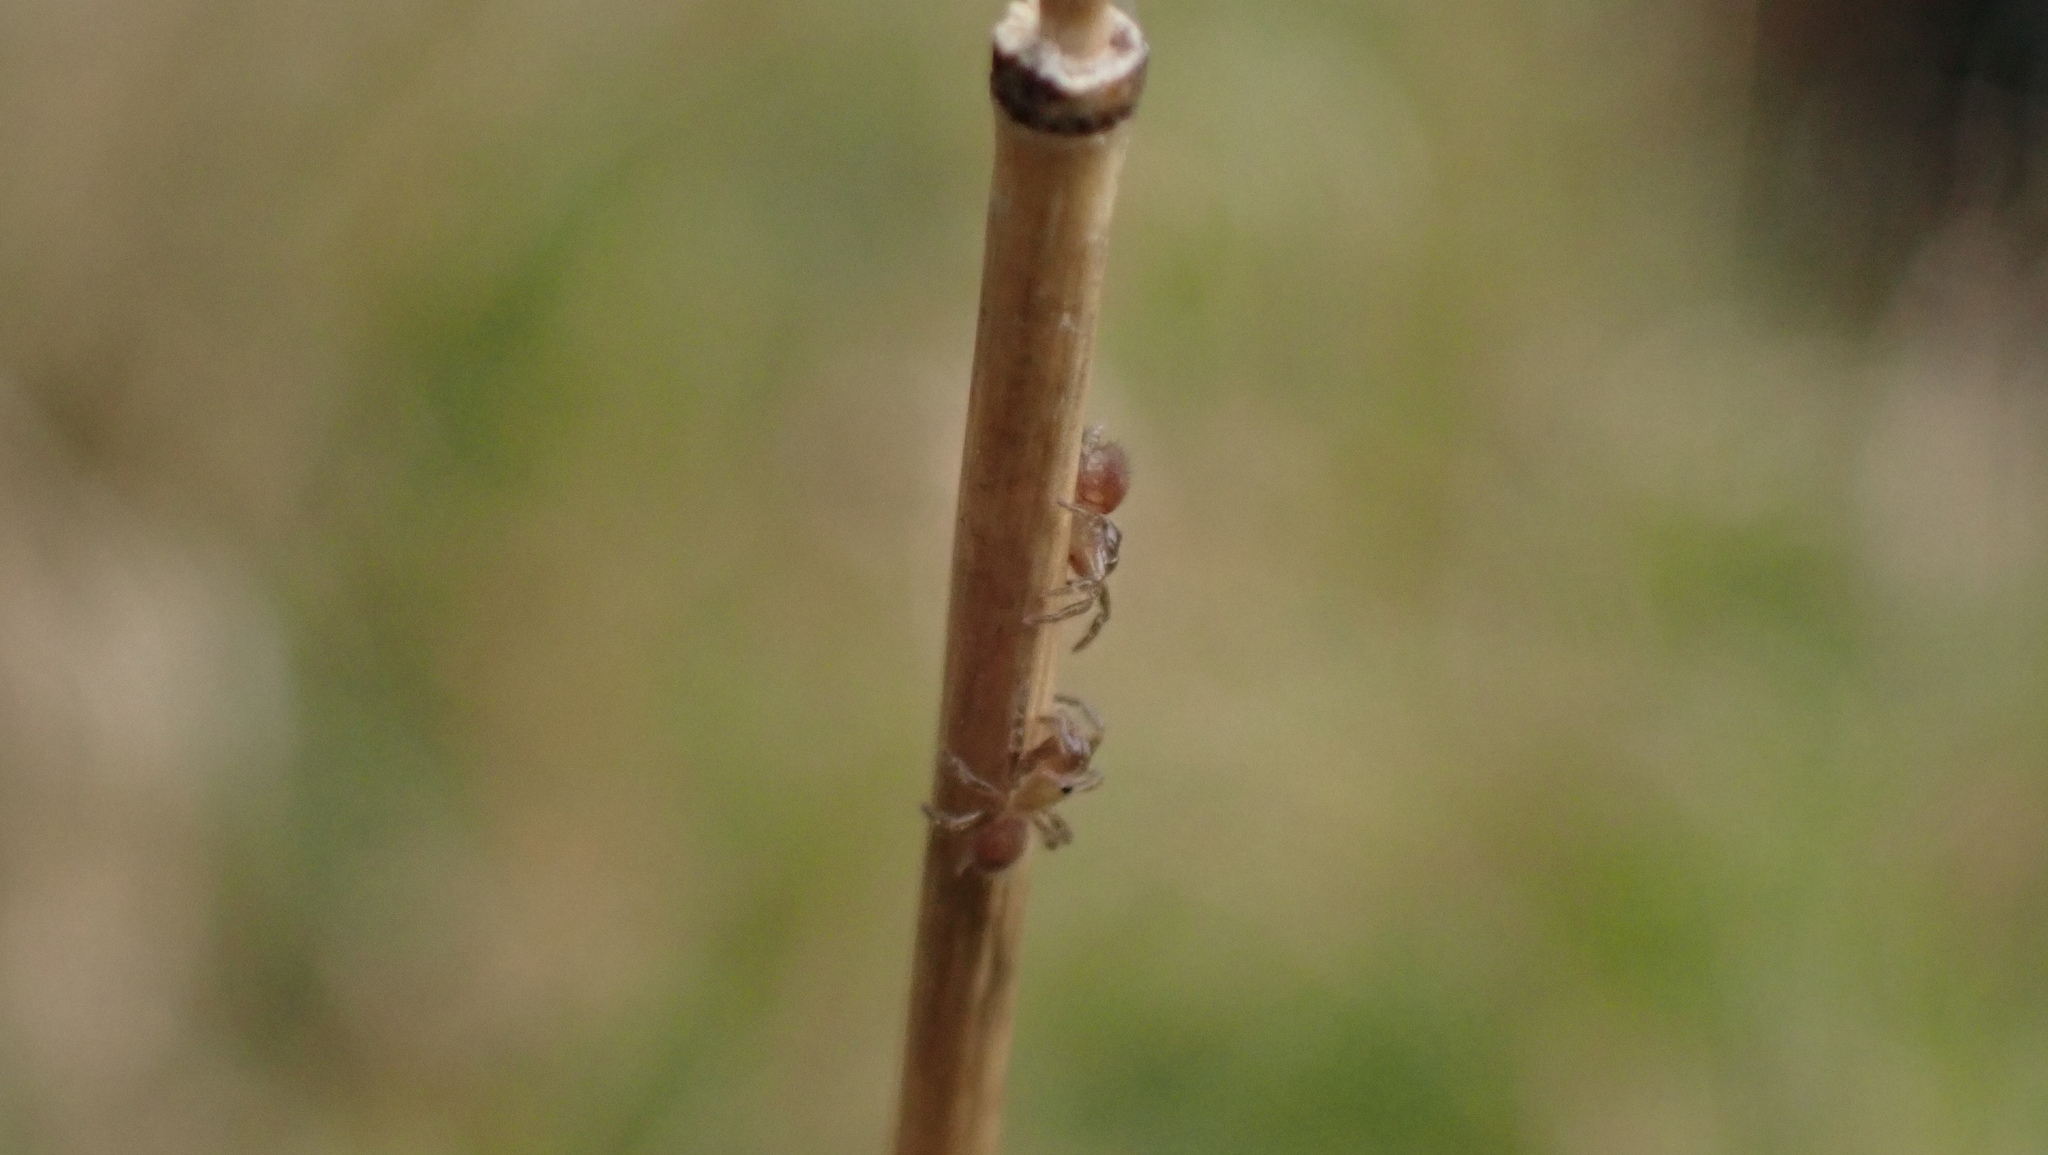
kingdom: Animalia
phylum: Arthropoda
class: Arachnida
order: Araneae
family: Atypidae
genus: Atypus
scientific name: Atypus affinis
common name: Purse web spider
